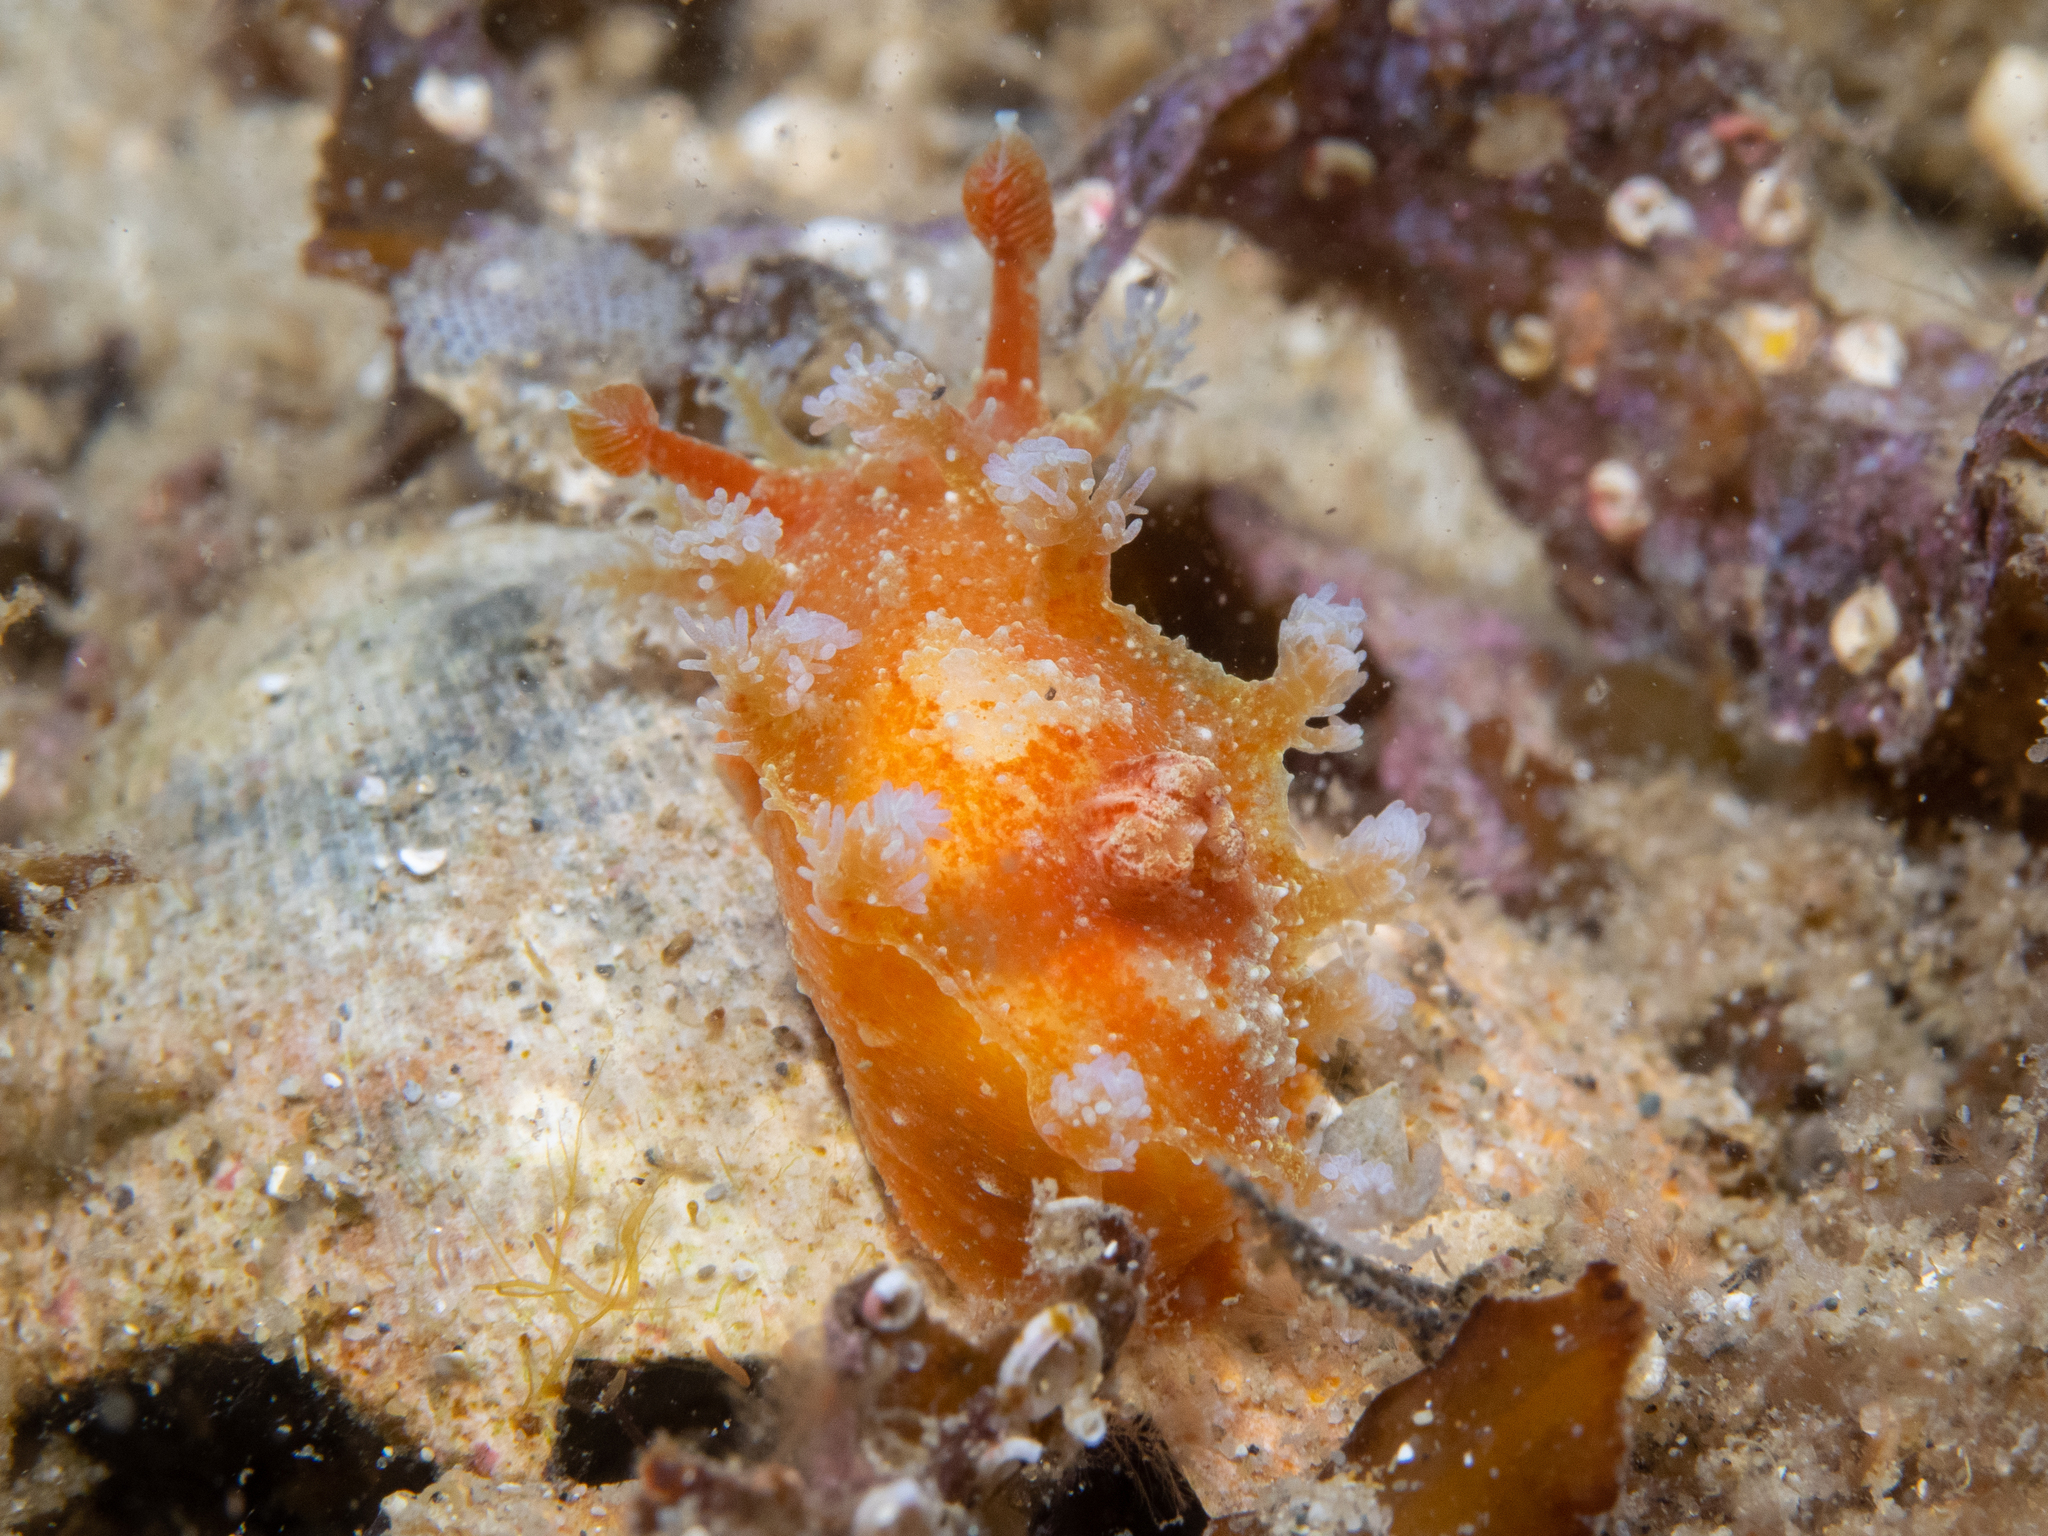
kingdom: Animalia
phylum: Mollusca
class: Gastropoda
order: Nudibranchia
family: Polyceridae
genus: Kaloplocamus
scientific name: Kaloplocamus ramosus
